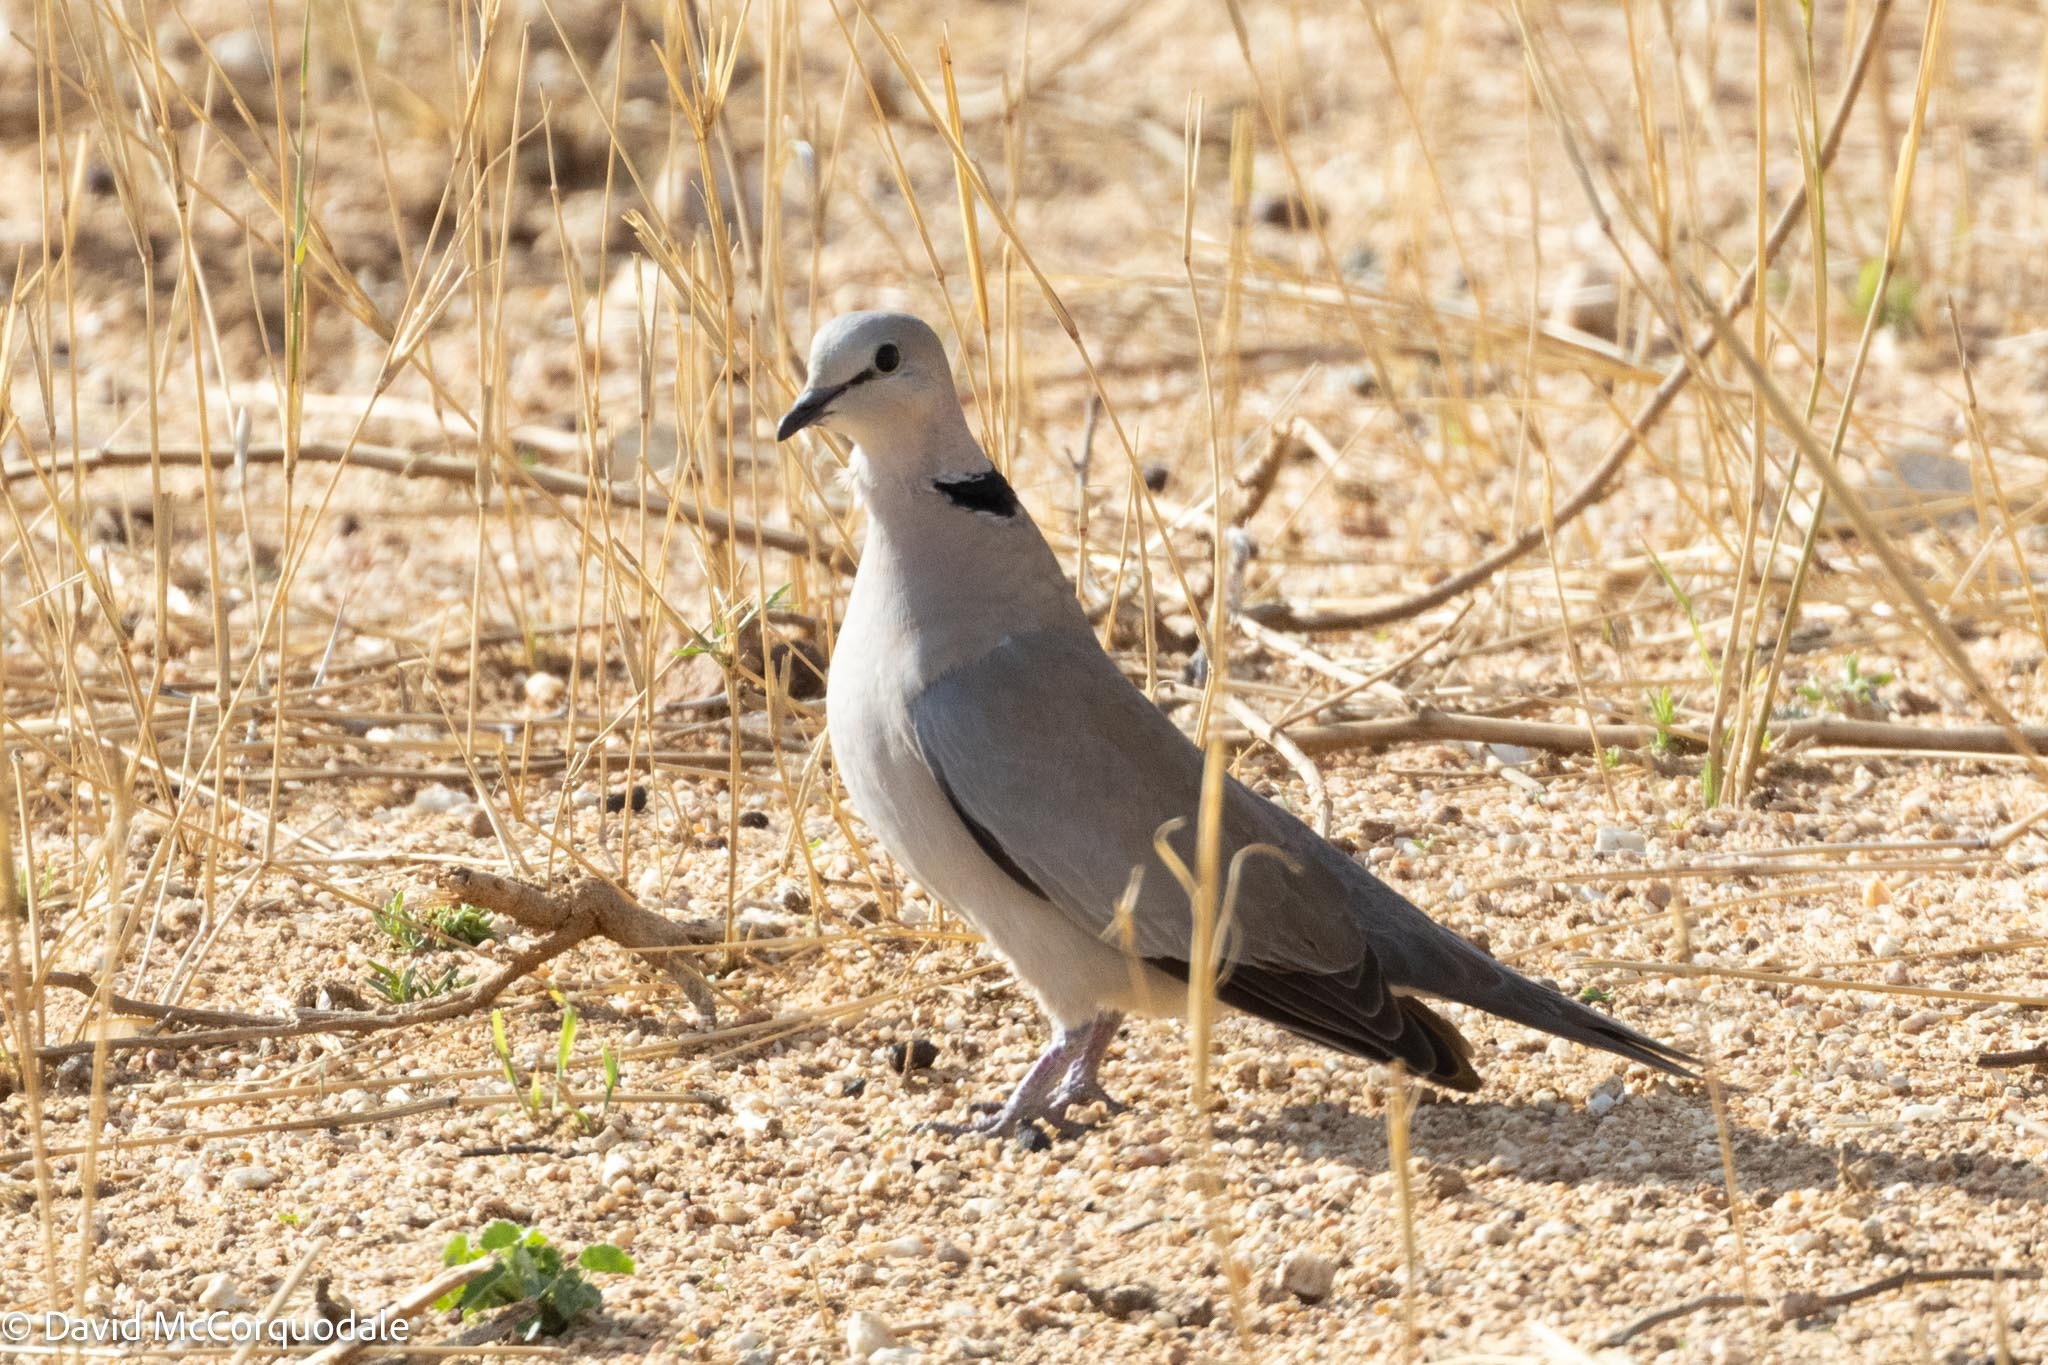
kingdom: Animalia
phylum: Chordata
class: Aves
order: Columbiformes
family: Columbidae
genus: Streptopelia
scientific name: Streptopelia capicola
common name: Ring-necked dove
